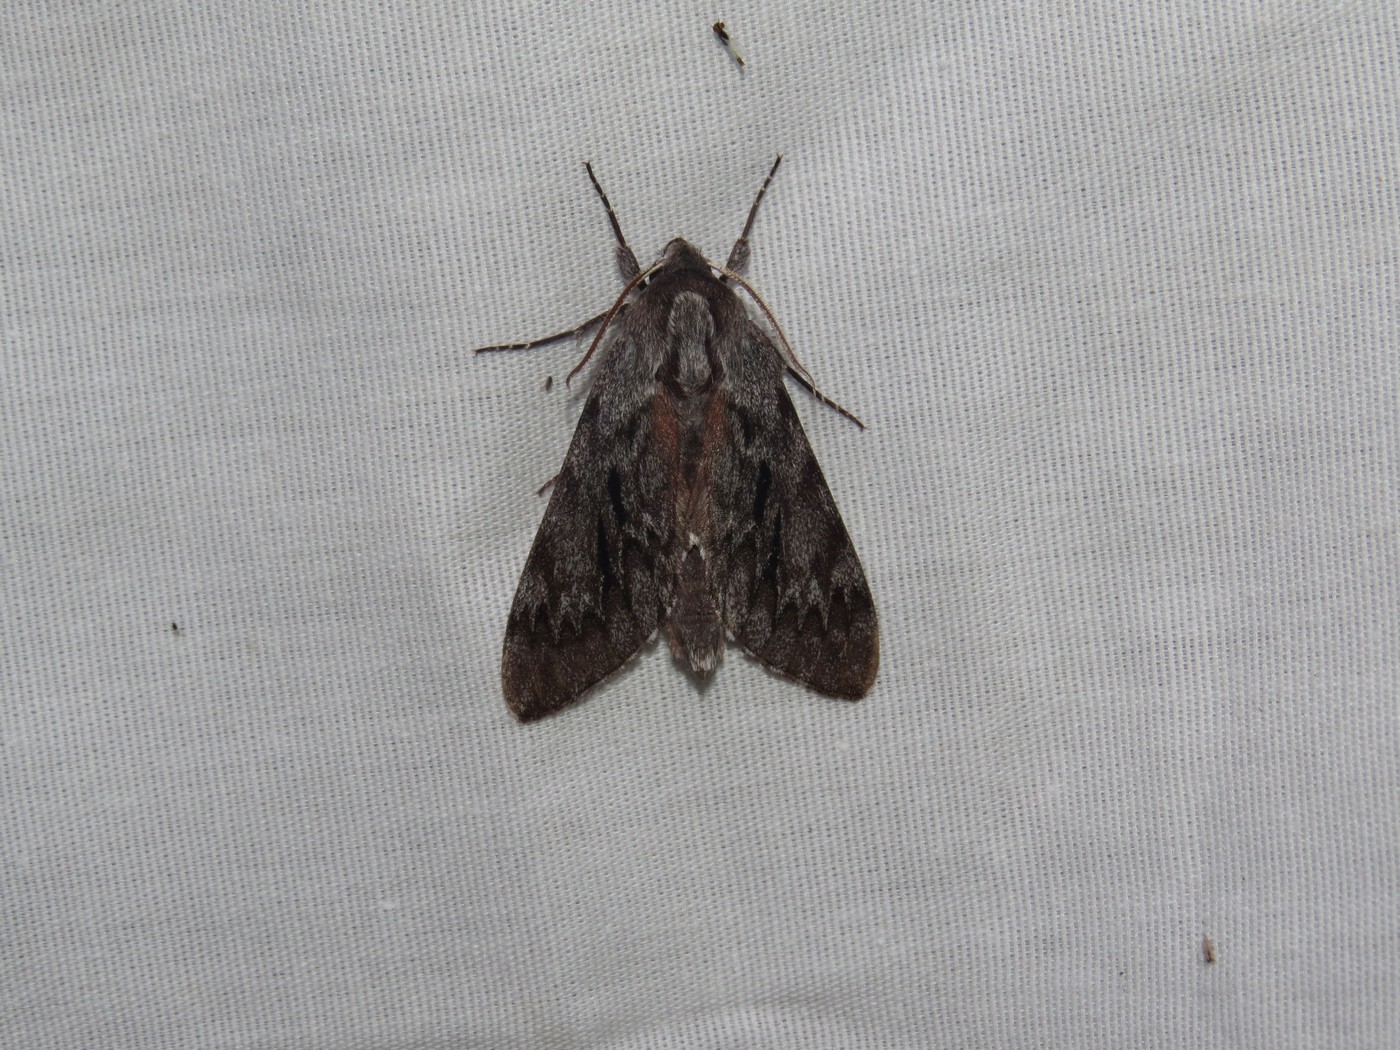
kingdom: Animalia
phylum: Arthropoda
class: Insecta
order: Lepidoptera
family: Sphingidae
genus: Lapara
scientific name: Lapara bombycoides
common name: Northern pine sphinx
